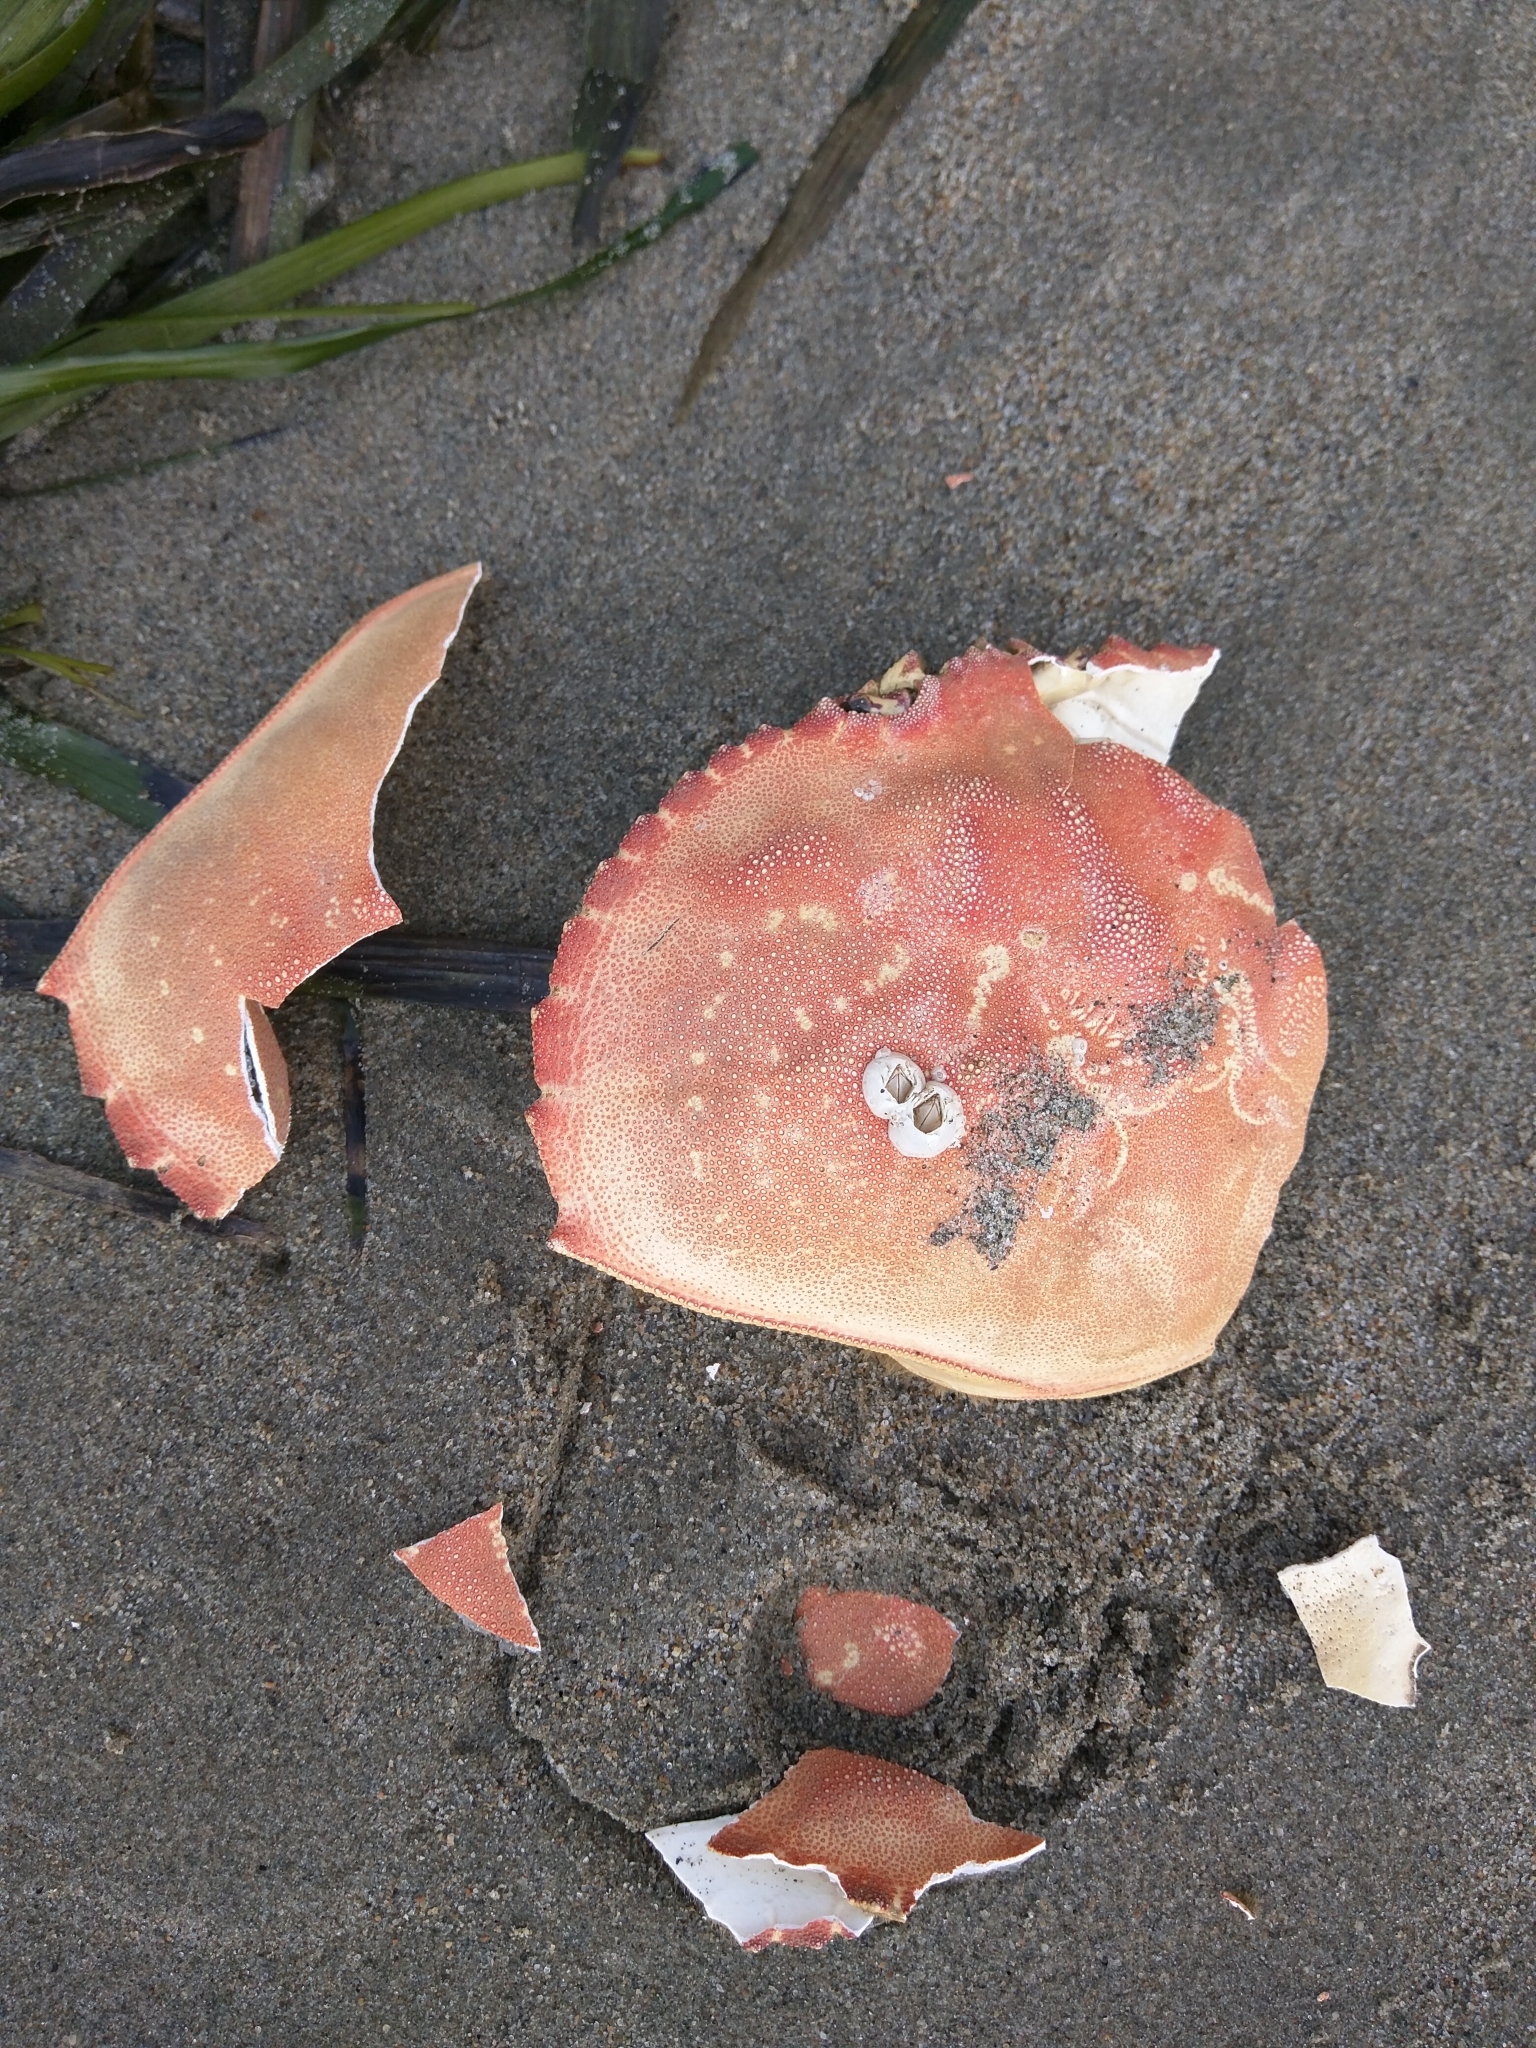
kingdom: Animalia
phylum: Arthropoda
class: Malacostraca
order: Decapoda
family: Cancridae
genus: Metacarcinus
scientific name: Metacarcinus magister
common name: Californian crab
